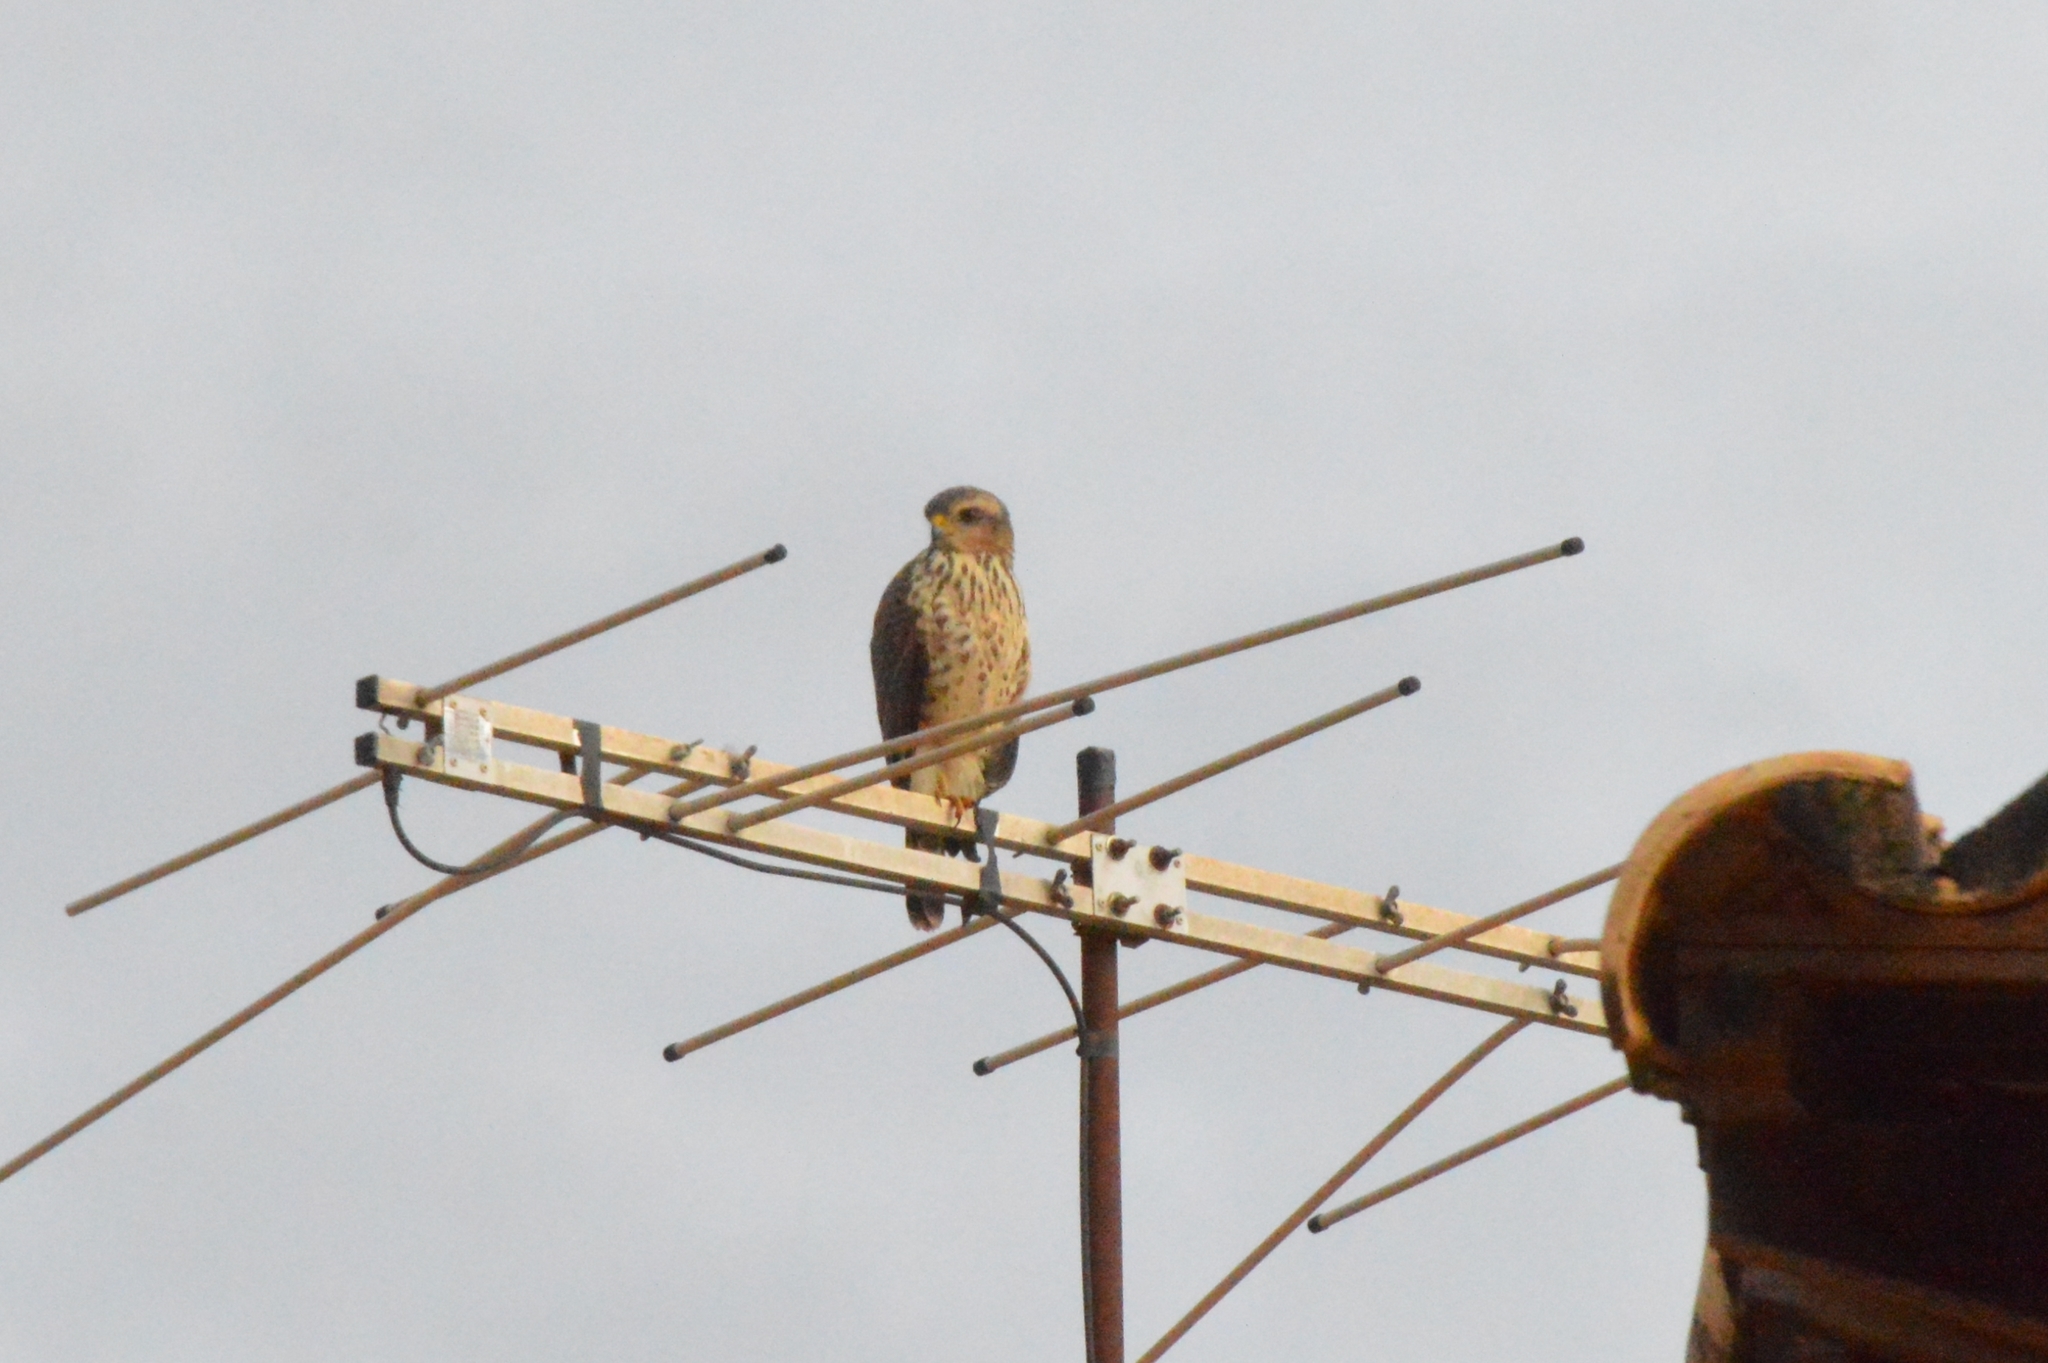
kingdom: Animalia
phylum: Chordata
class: Aves
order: Accipitriformes
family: Accipitridae
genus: Rupornis
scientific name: Rupornis magnirostris
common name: Roadside hawk
